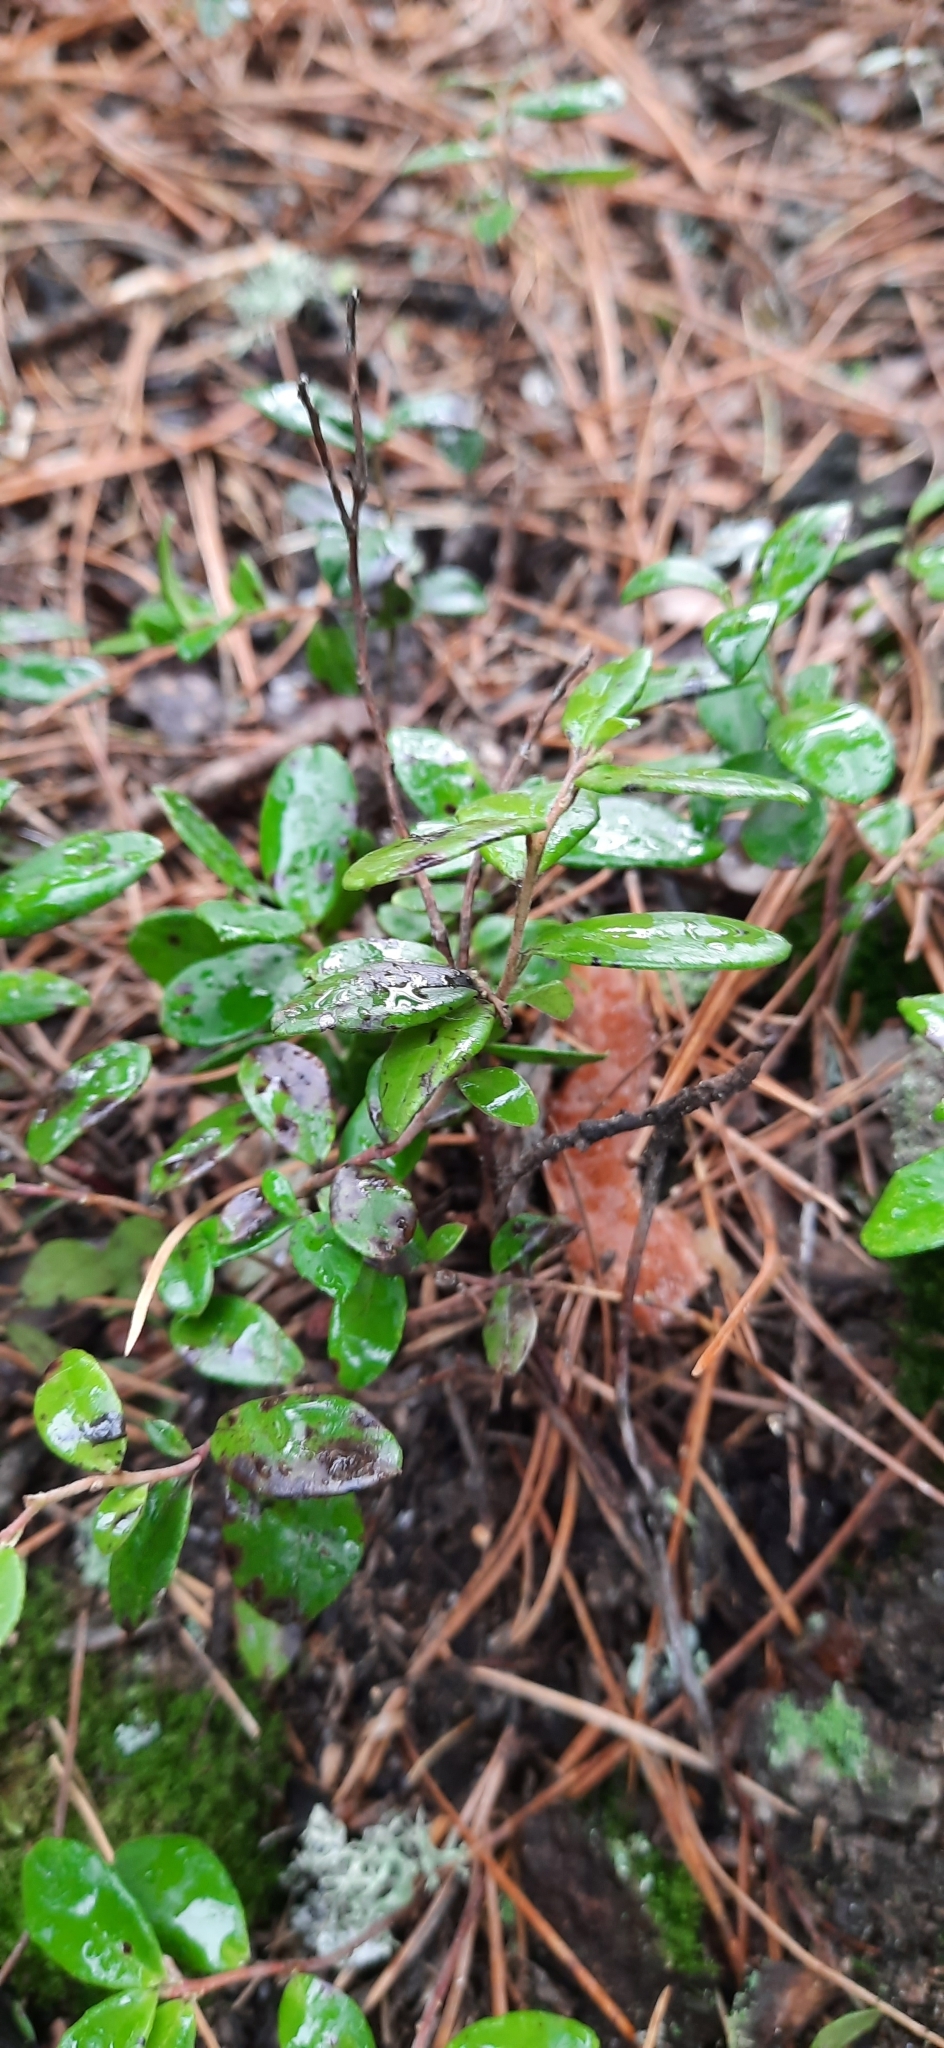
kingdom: Plantae
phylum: Tracheophyta
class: Magnoliopsida
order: Ericales
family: Ericaceae
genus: Vaccinium
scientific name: Vaccinium vitis-idaea
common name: Cowberry
